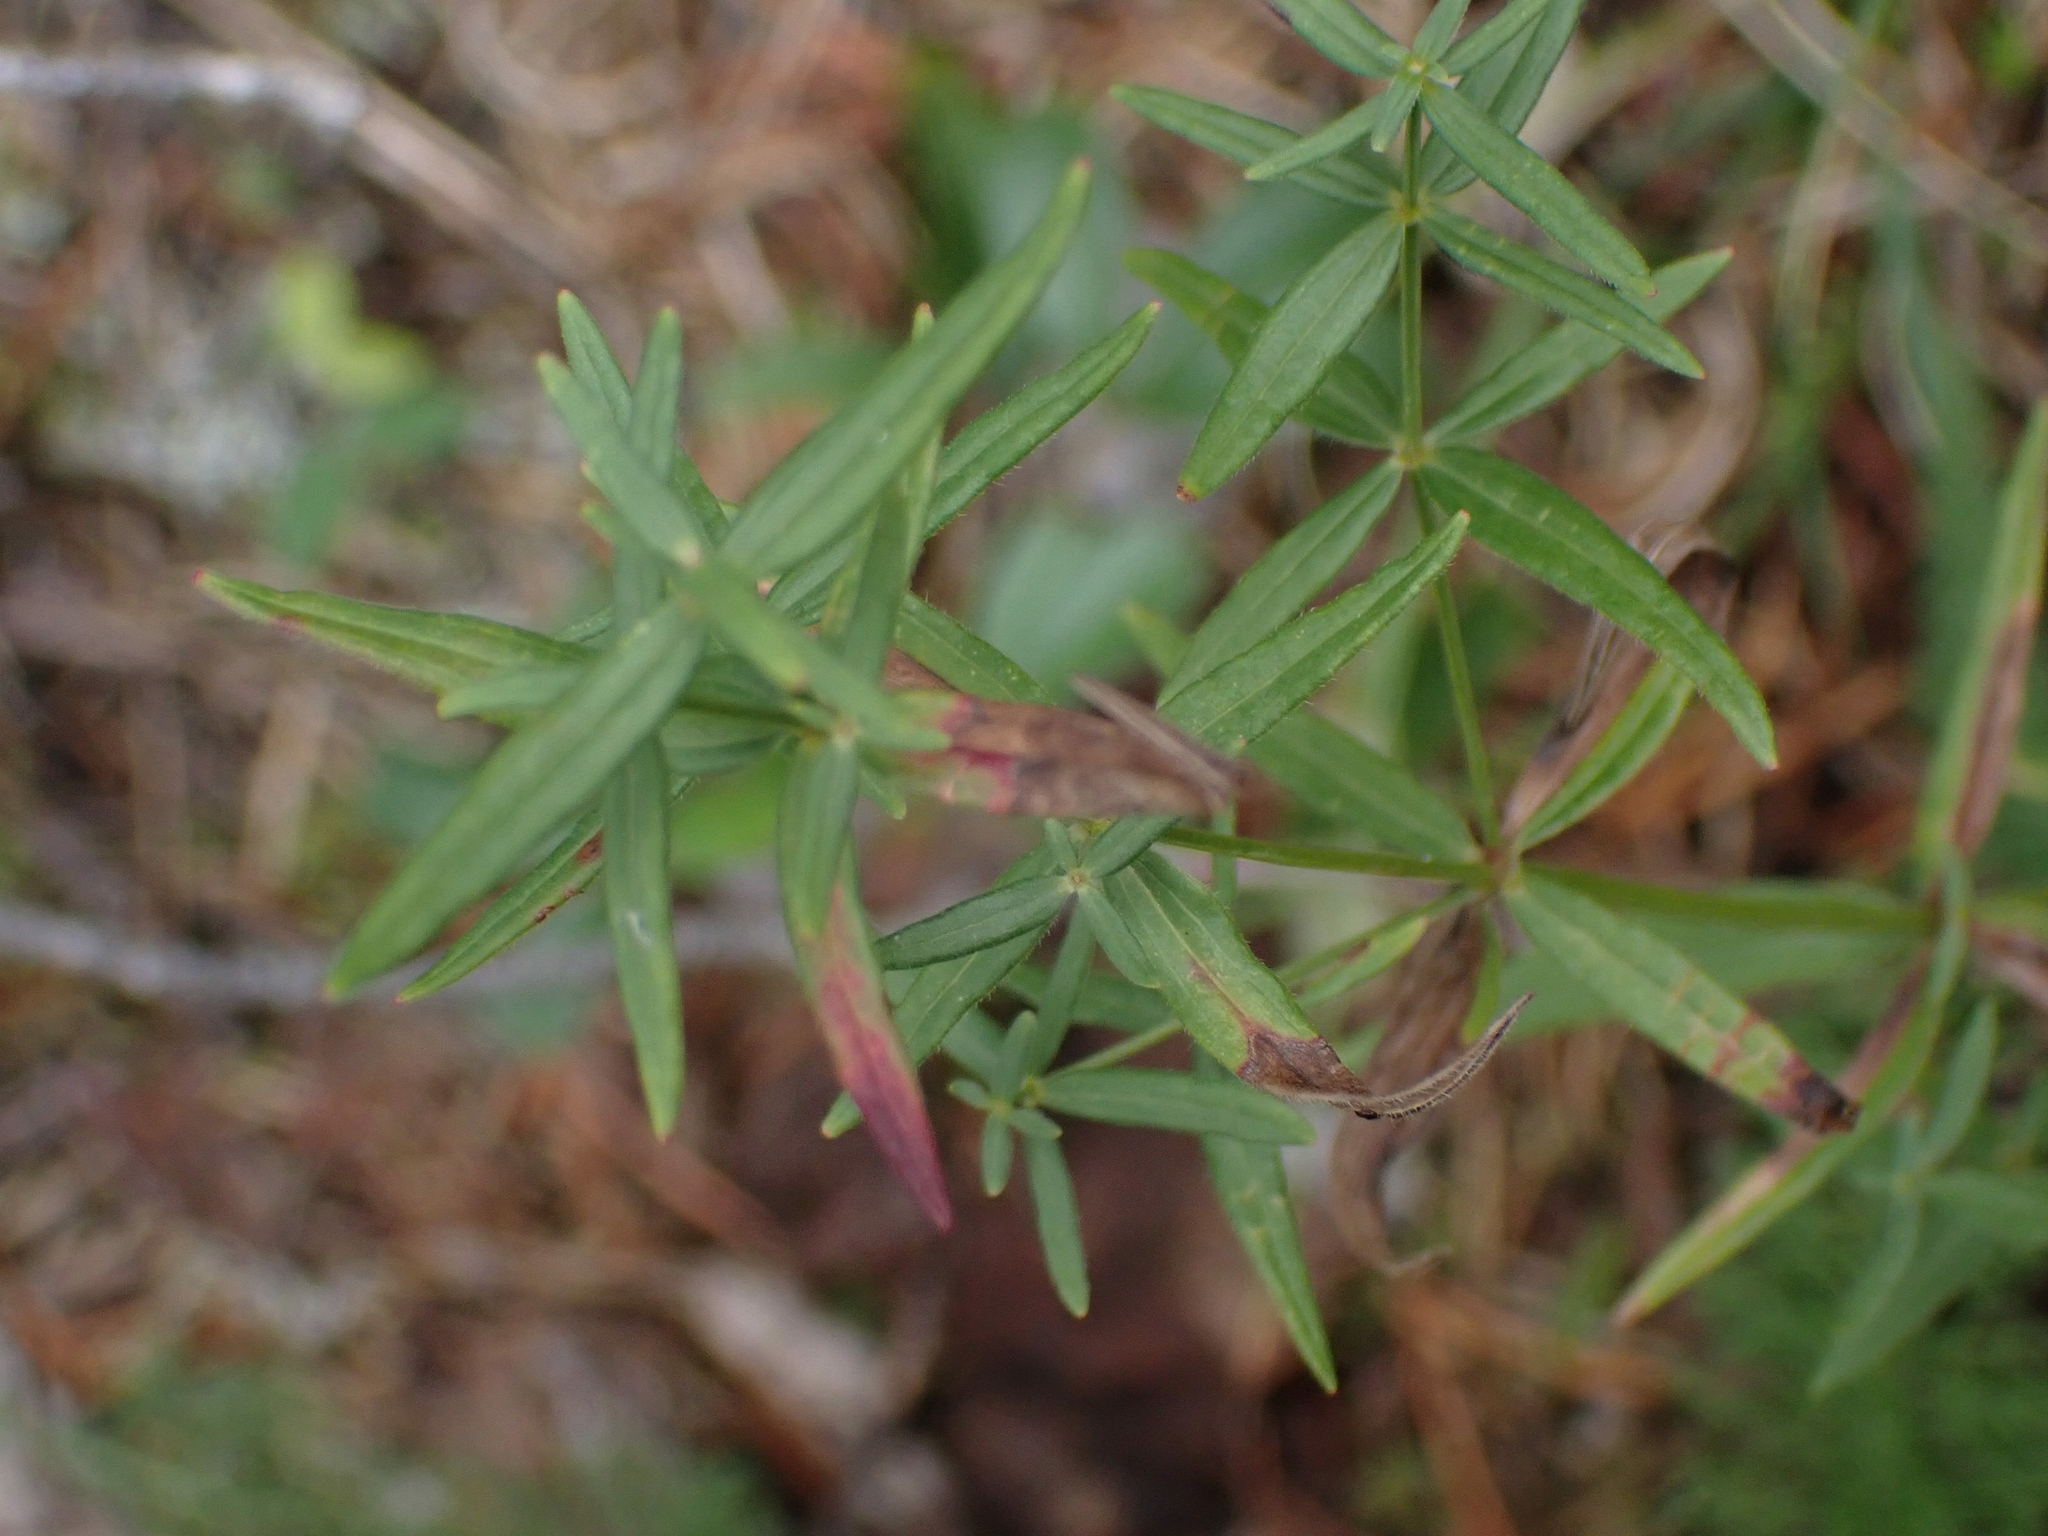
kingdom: Plantae
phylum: Tracheophyta
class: Magnoliopsida
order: Gentianales
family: Rubiaceae
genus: Galium
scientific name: Galium boreale
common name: Northern bedstraw
